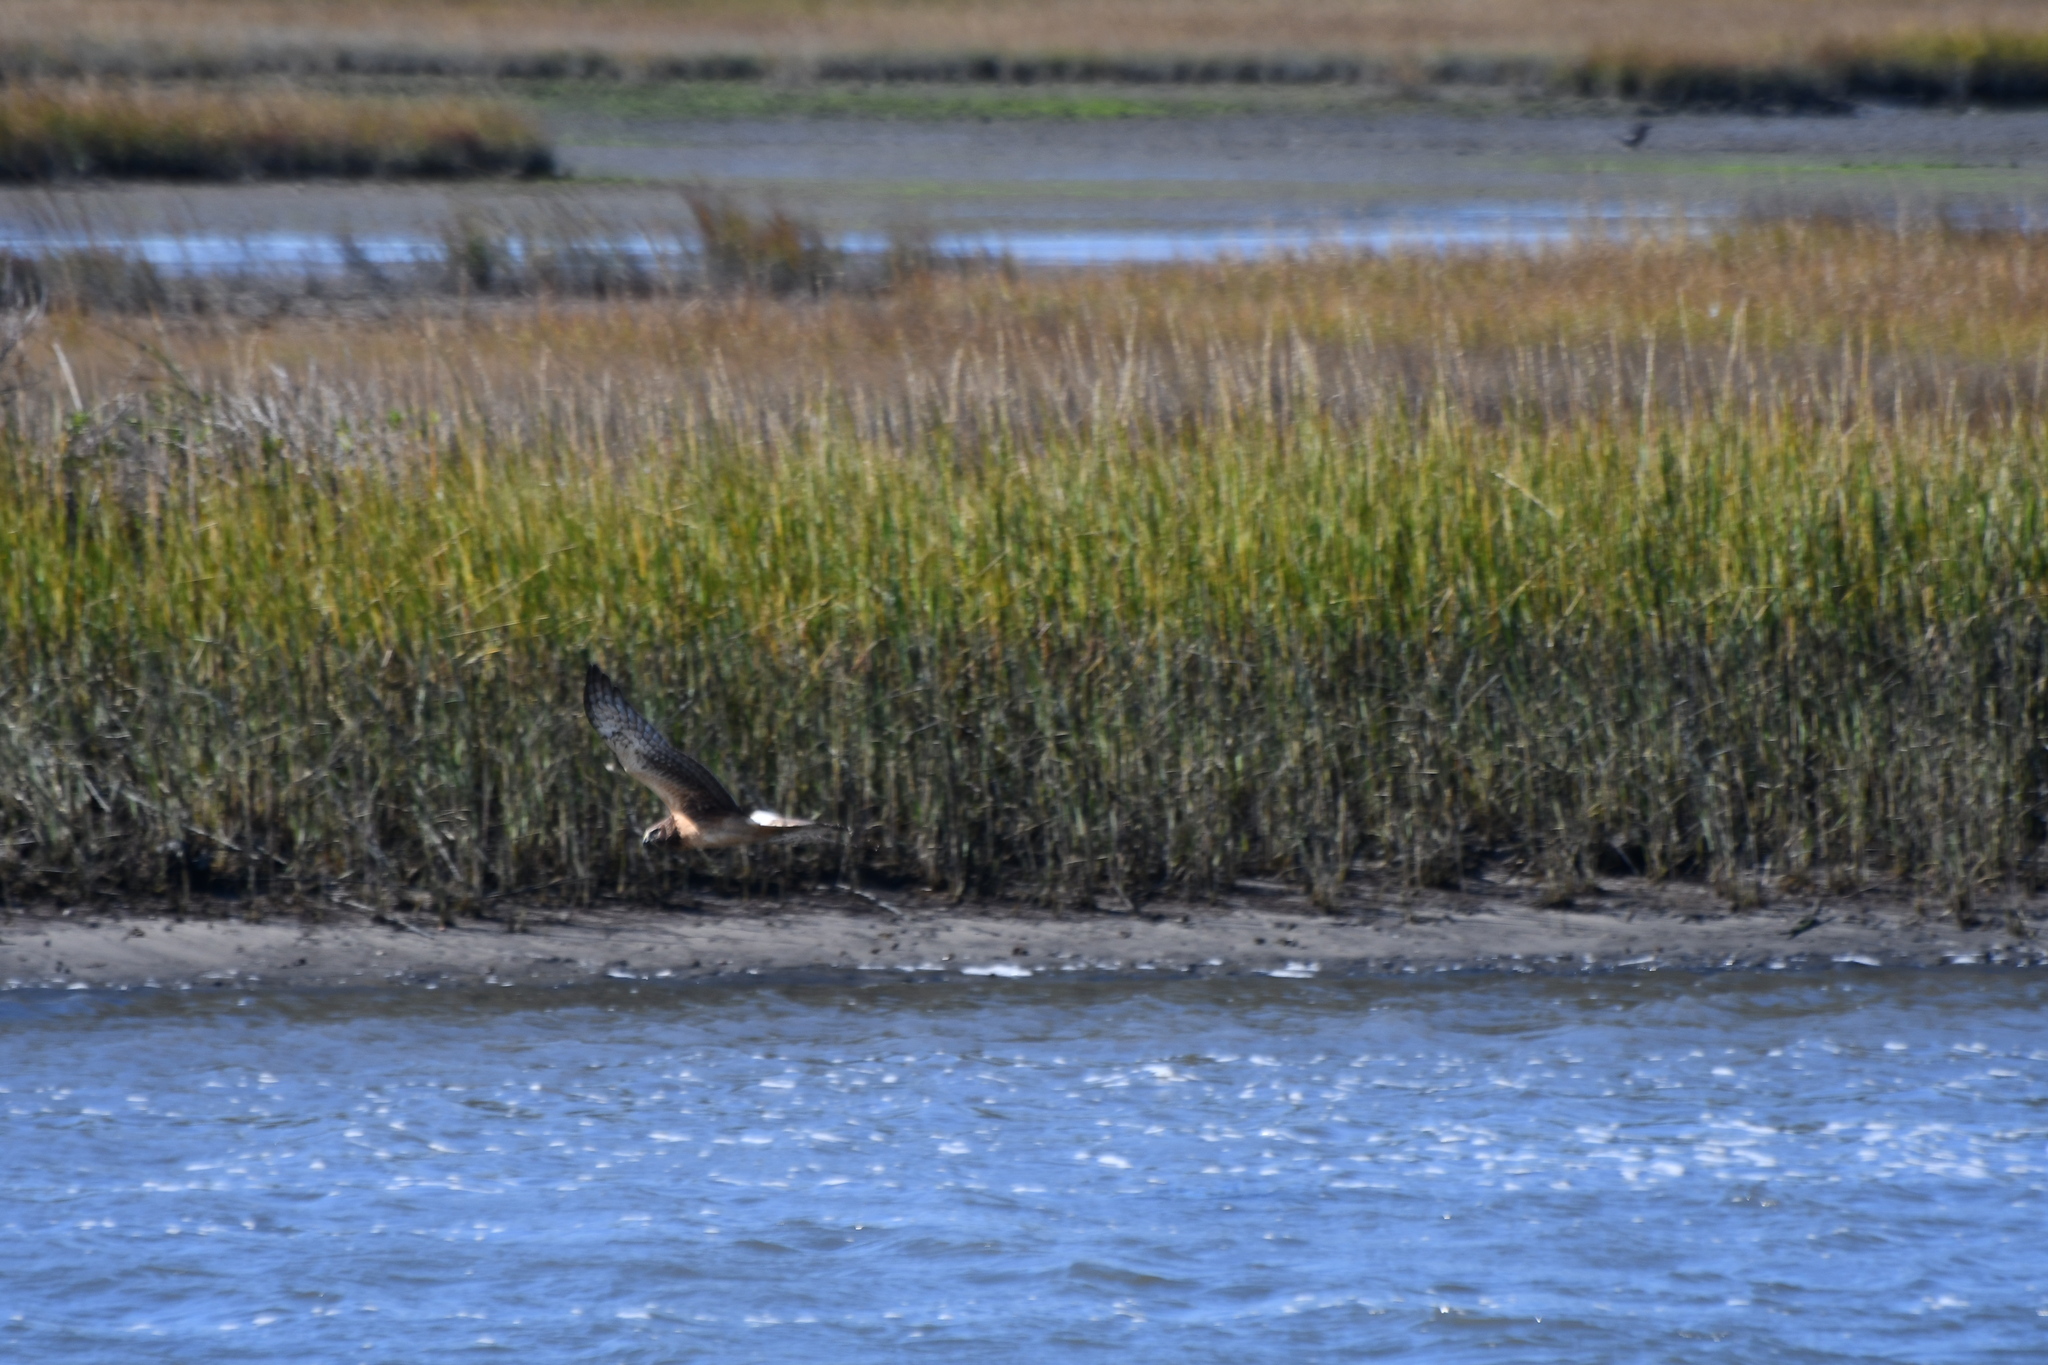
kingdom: Animalia
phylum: Chordata
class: Aves
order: Accipitriformes
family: Accipitridae
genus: Circus
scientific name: Circus cyaneus
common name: Hen harrier
